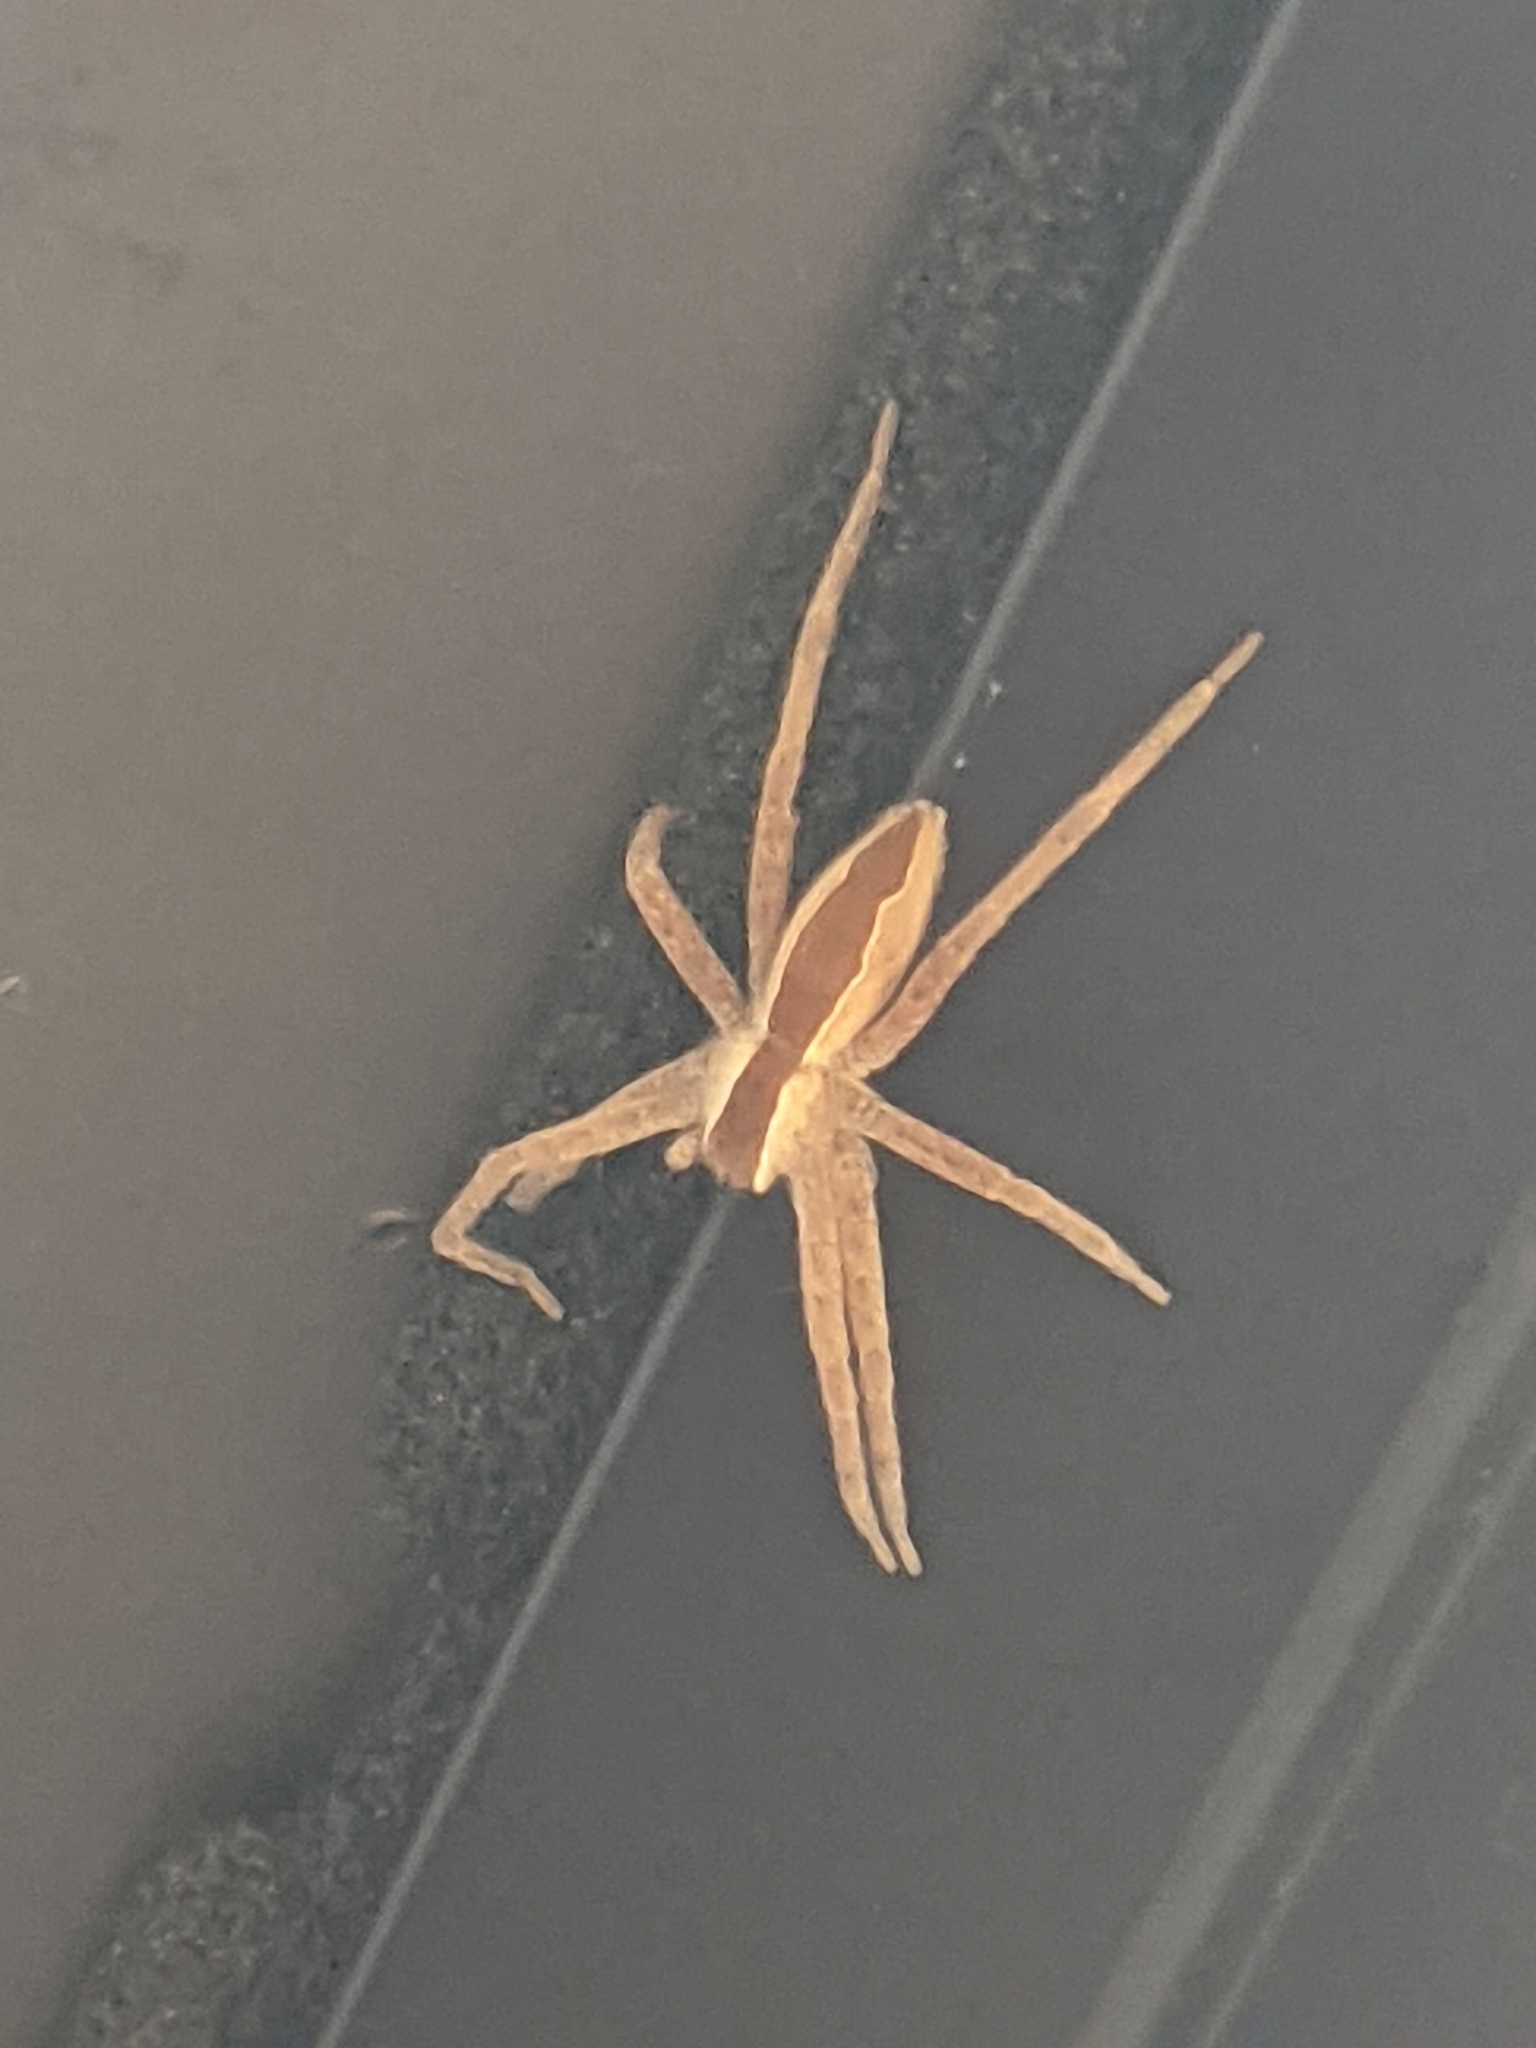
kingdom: Animalia
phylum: Arthropoda
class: Arachnida
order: Araneae
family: Pisauridae
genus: Pisaurina
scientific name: Pisaurina mira
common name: American nursery web spider
